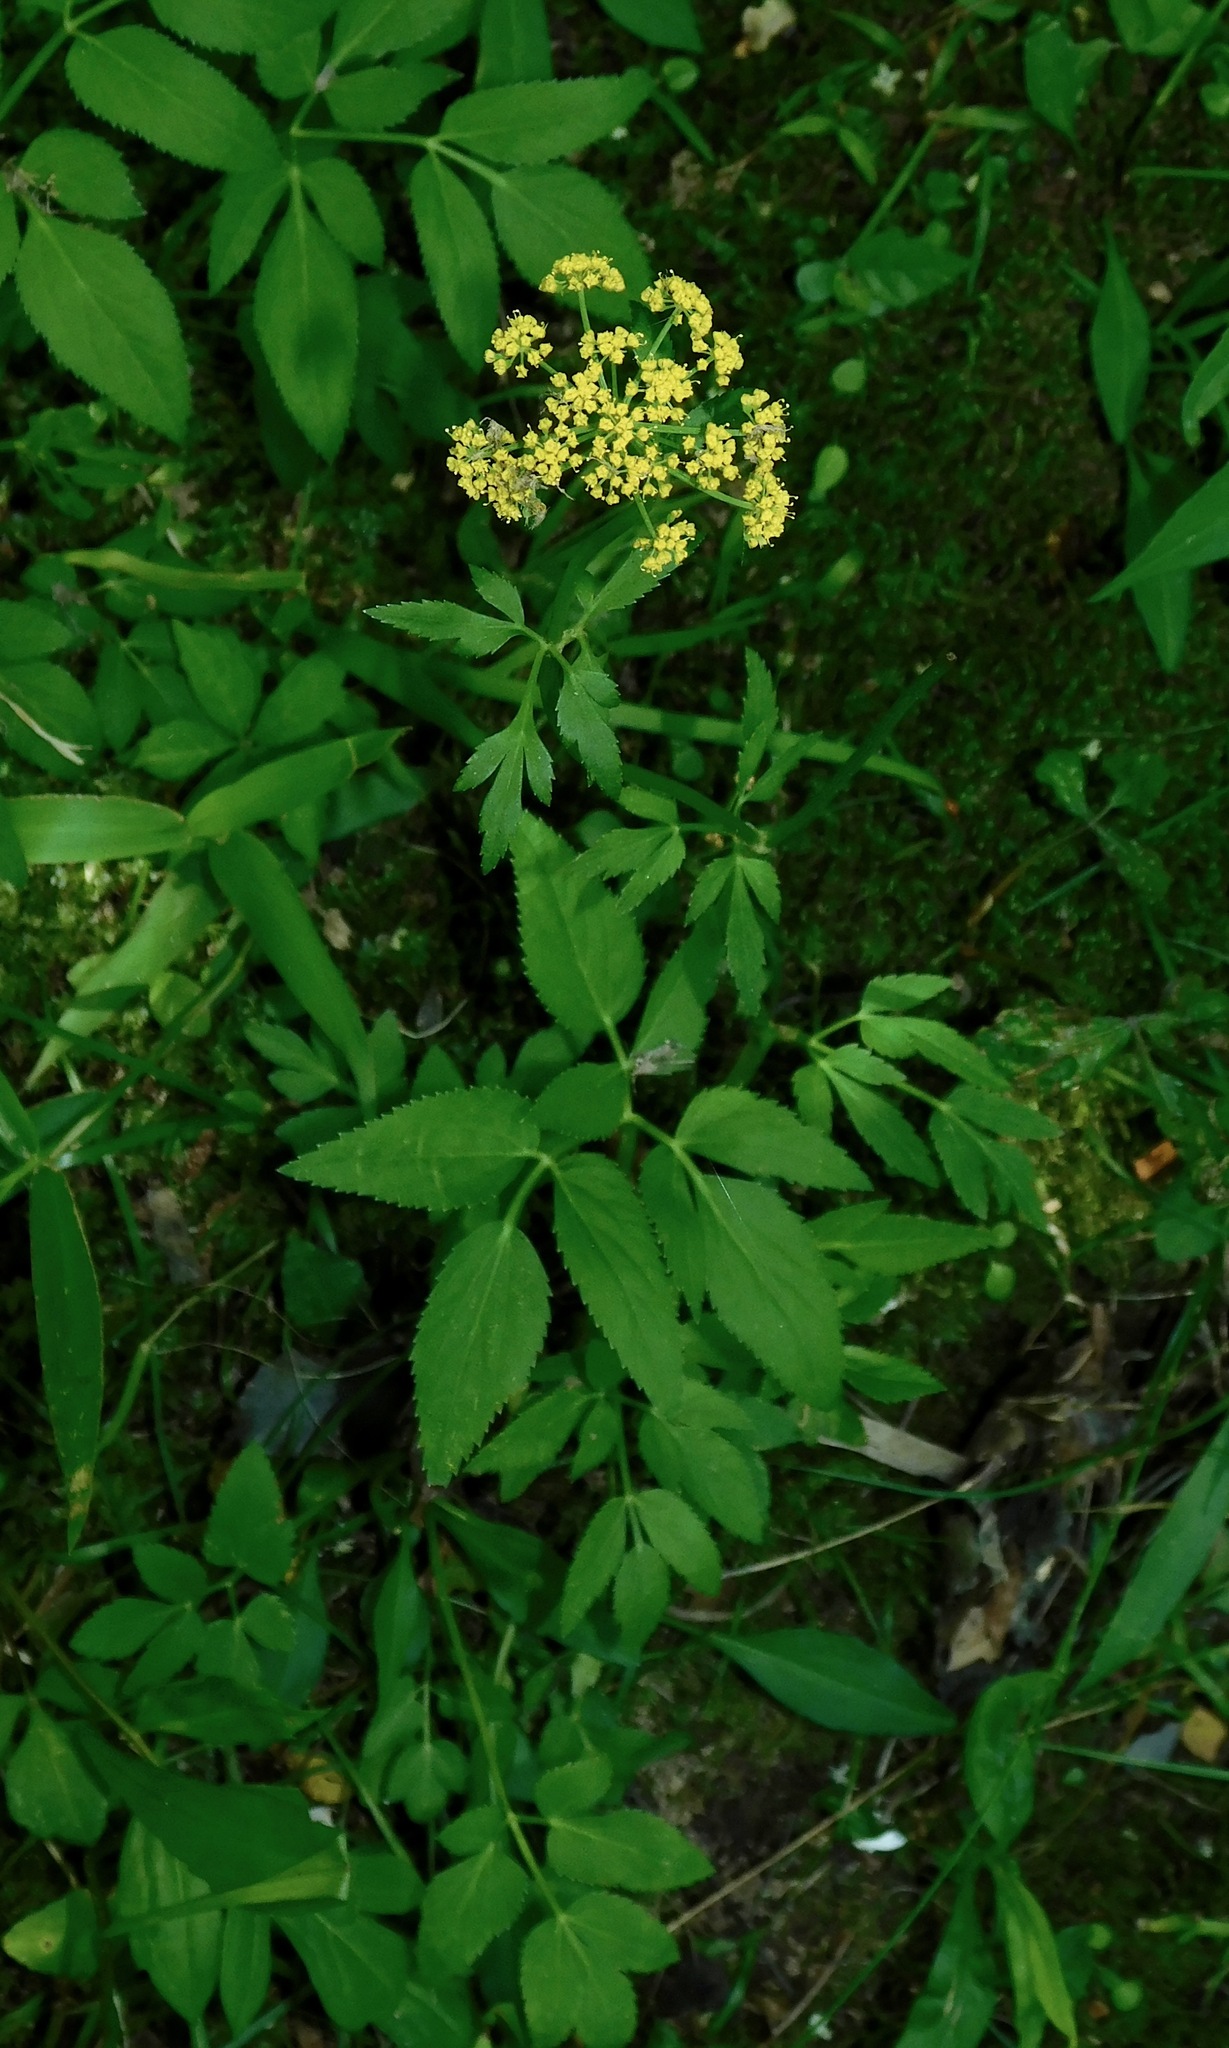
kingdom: Plantae
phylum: Tracheophyta
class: Magnoliopsida
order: Apiales
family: Apiaceae
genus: Zizia
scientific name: Zizia aurea
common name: Golden alexanders
